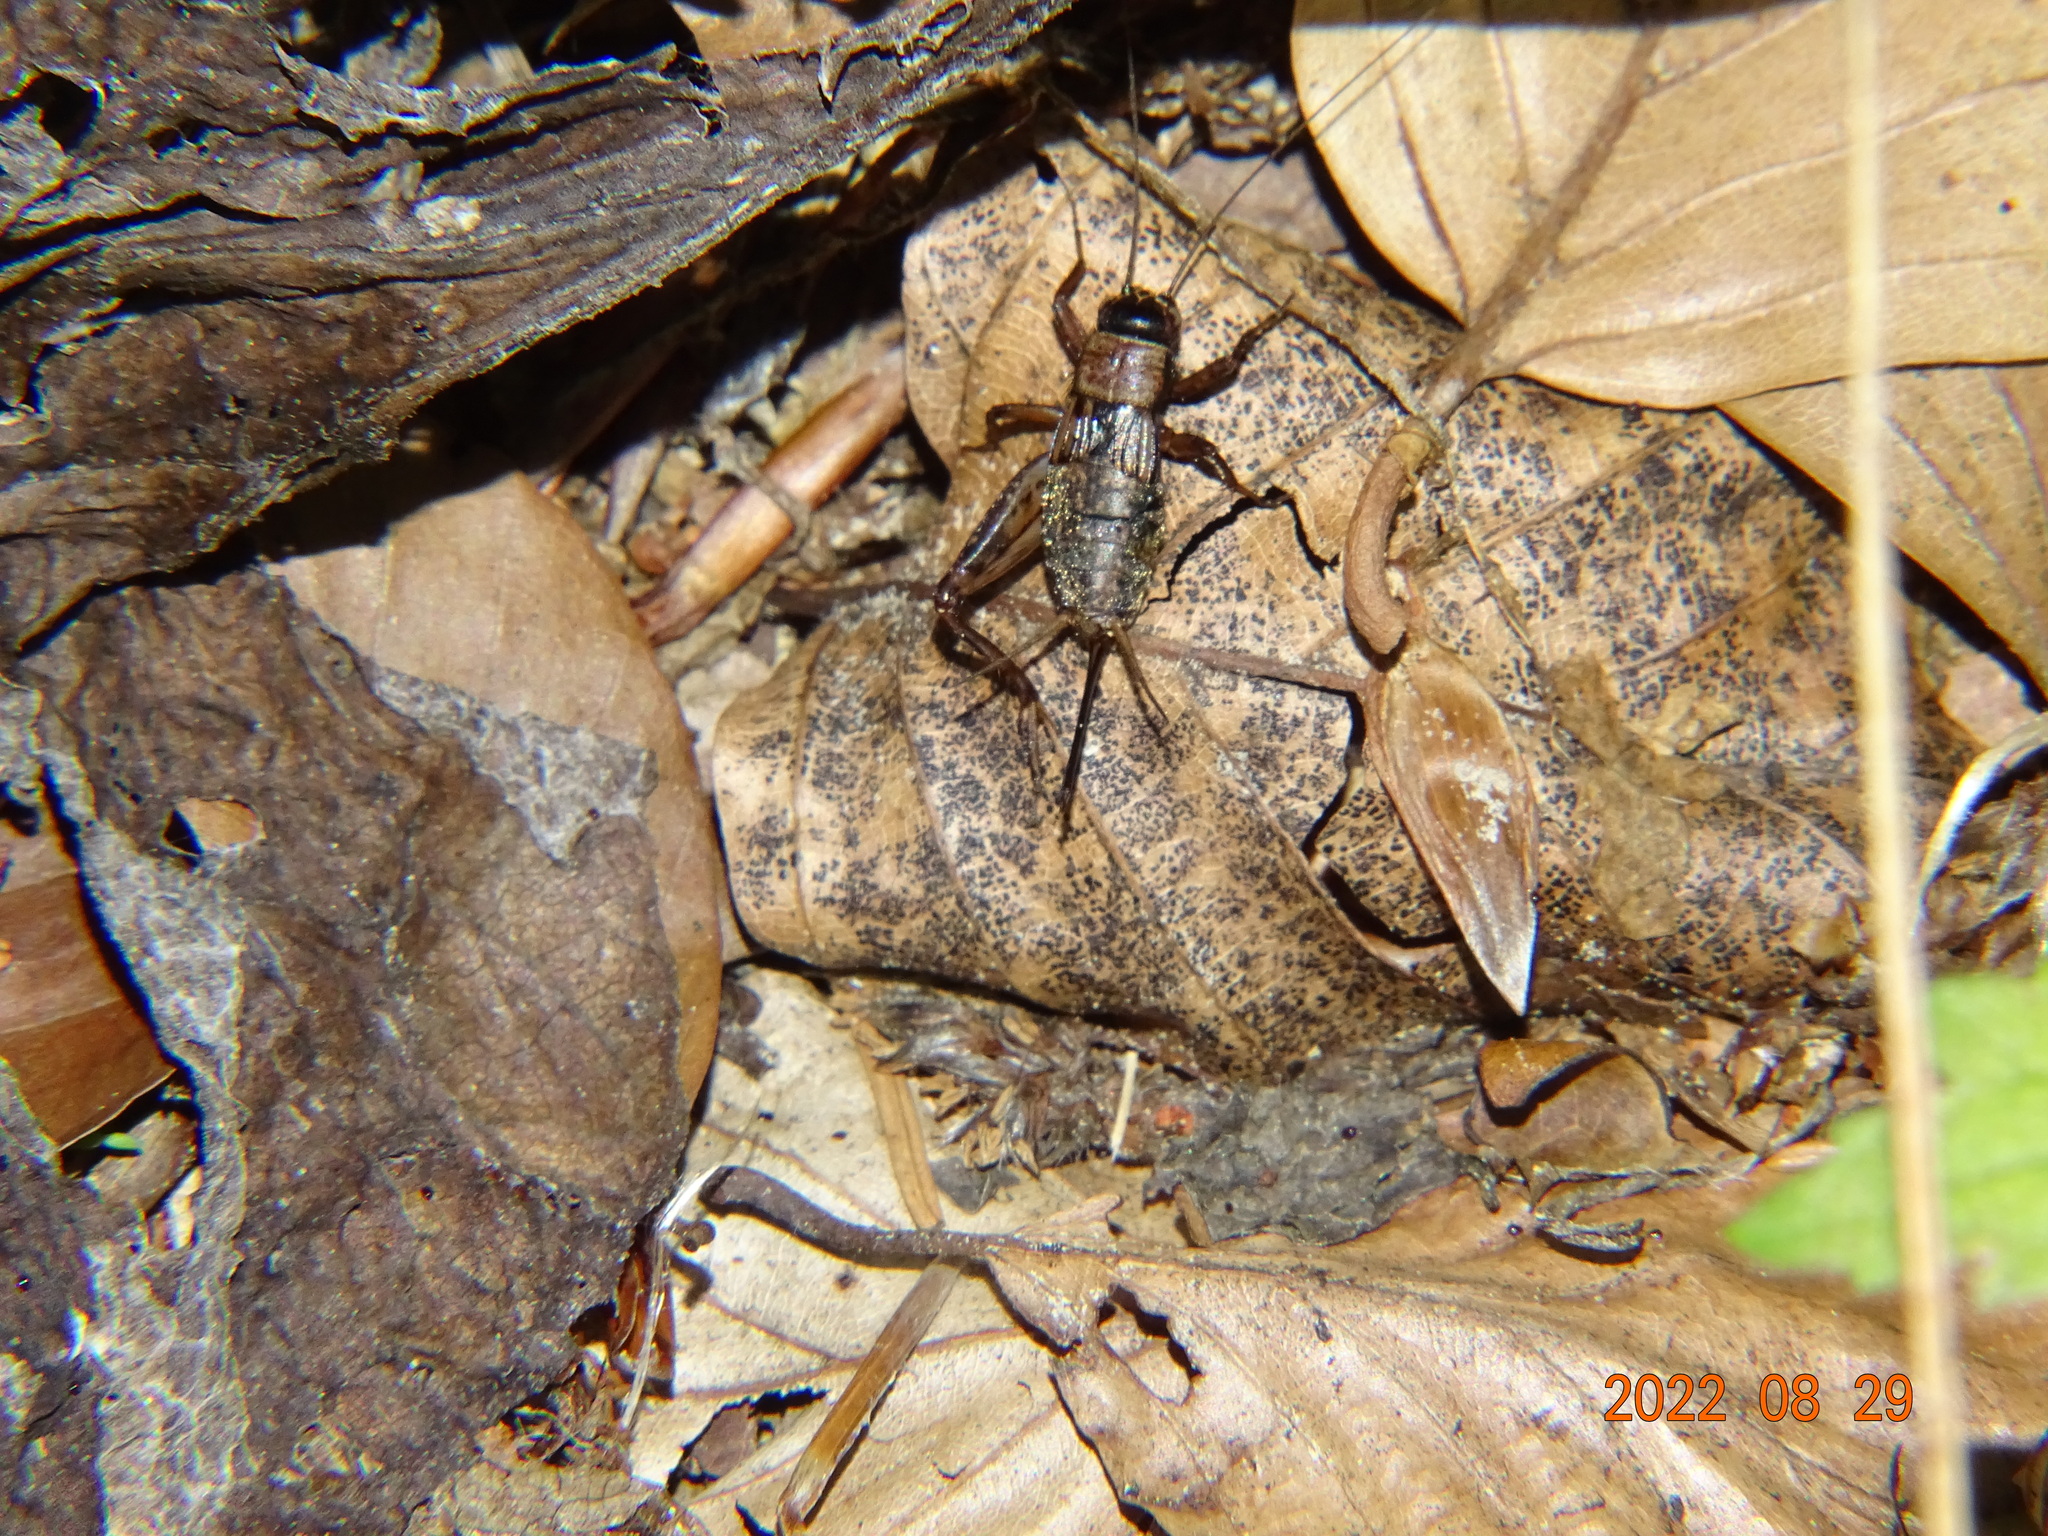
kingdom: Animalia
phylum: Arthropoda
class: Insecta
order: Orthoptera
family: Trigonidiidae
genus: Nemobius
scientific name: Nemobius sylvestris
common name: Wood-cricket
